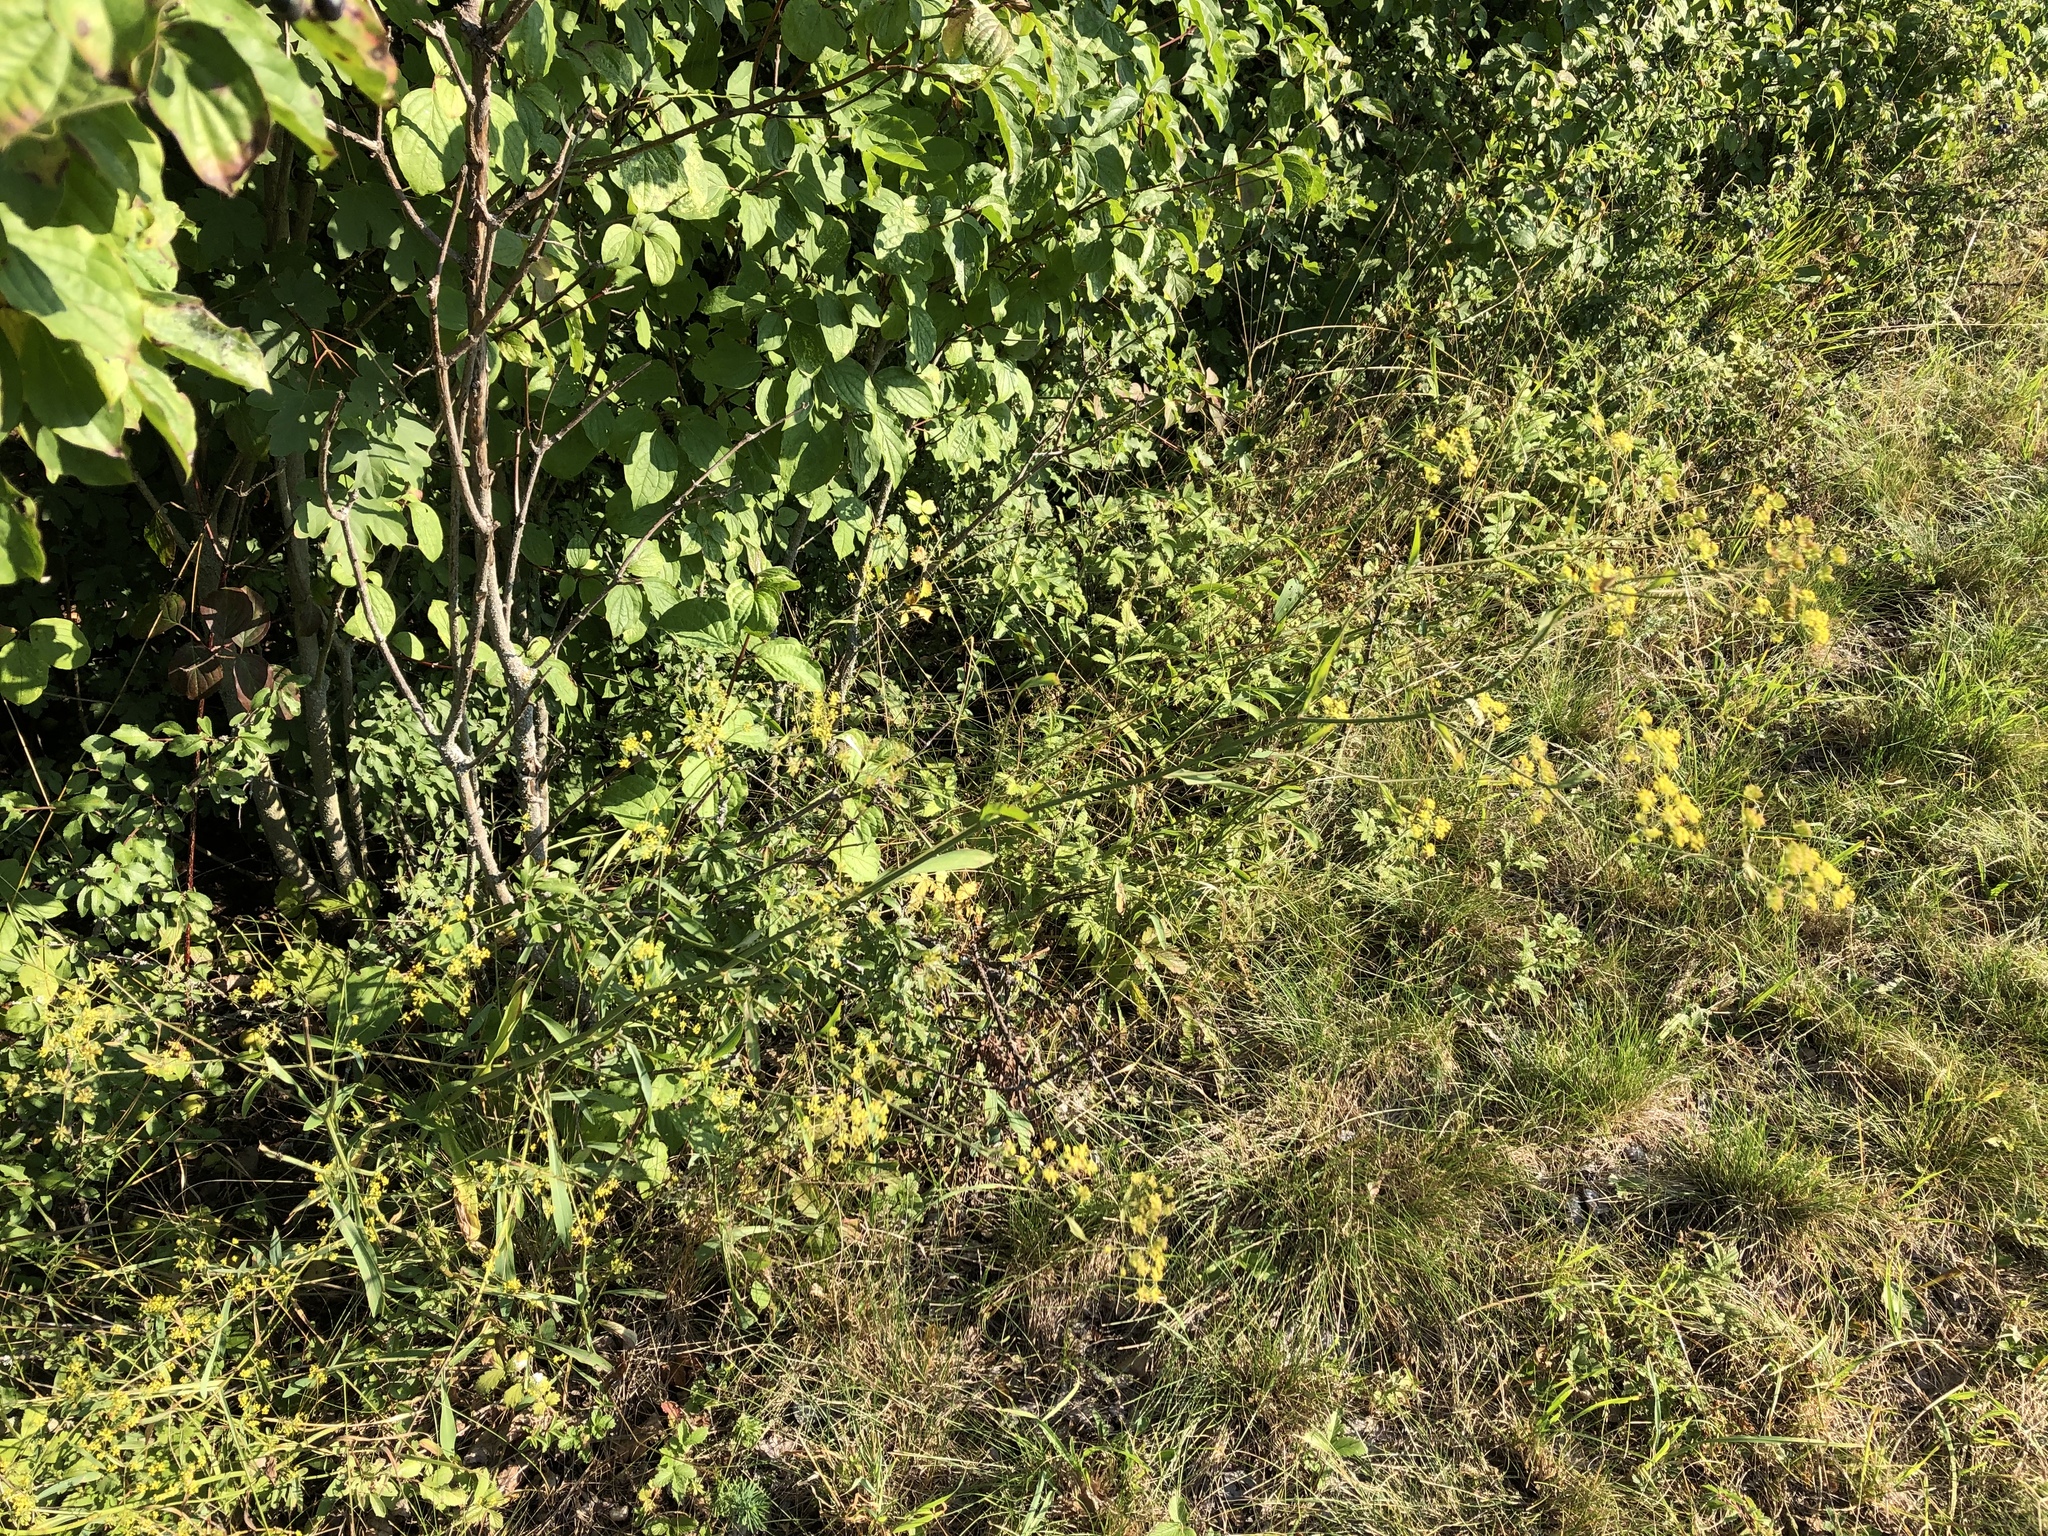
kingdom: Plantae
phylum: Tracheophyta
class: Magnoliopsida
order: Apiales
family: Apiaceae
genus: Bupleurum
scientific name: Bupleurum falcatum
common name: Sickle-leaved hare's-ear
